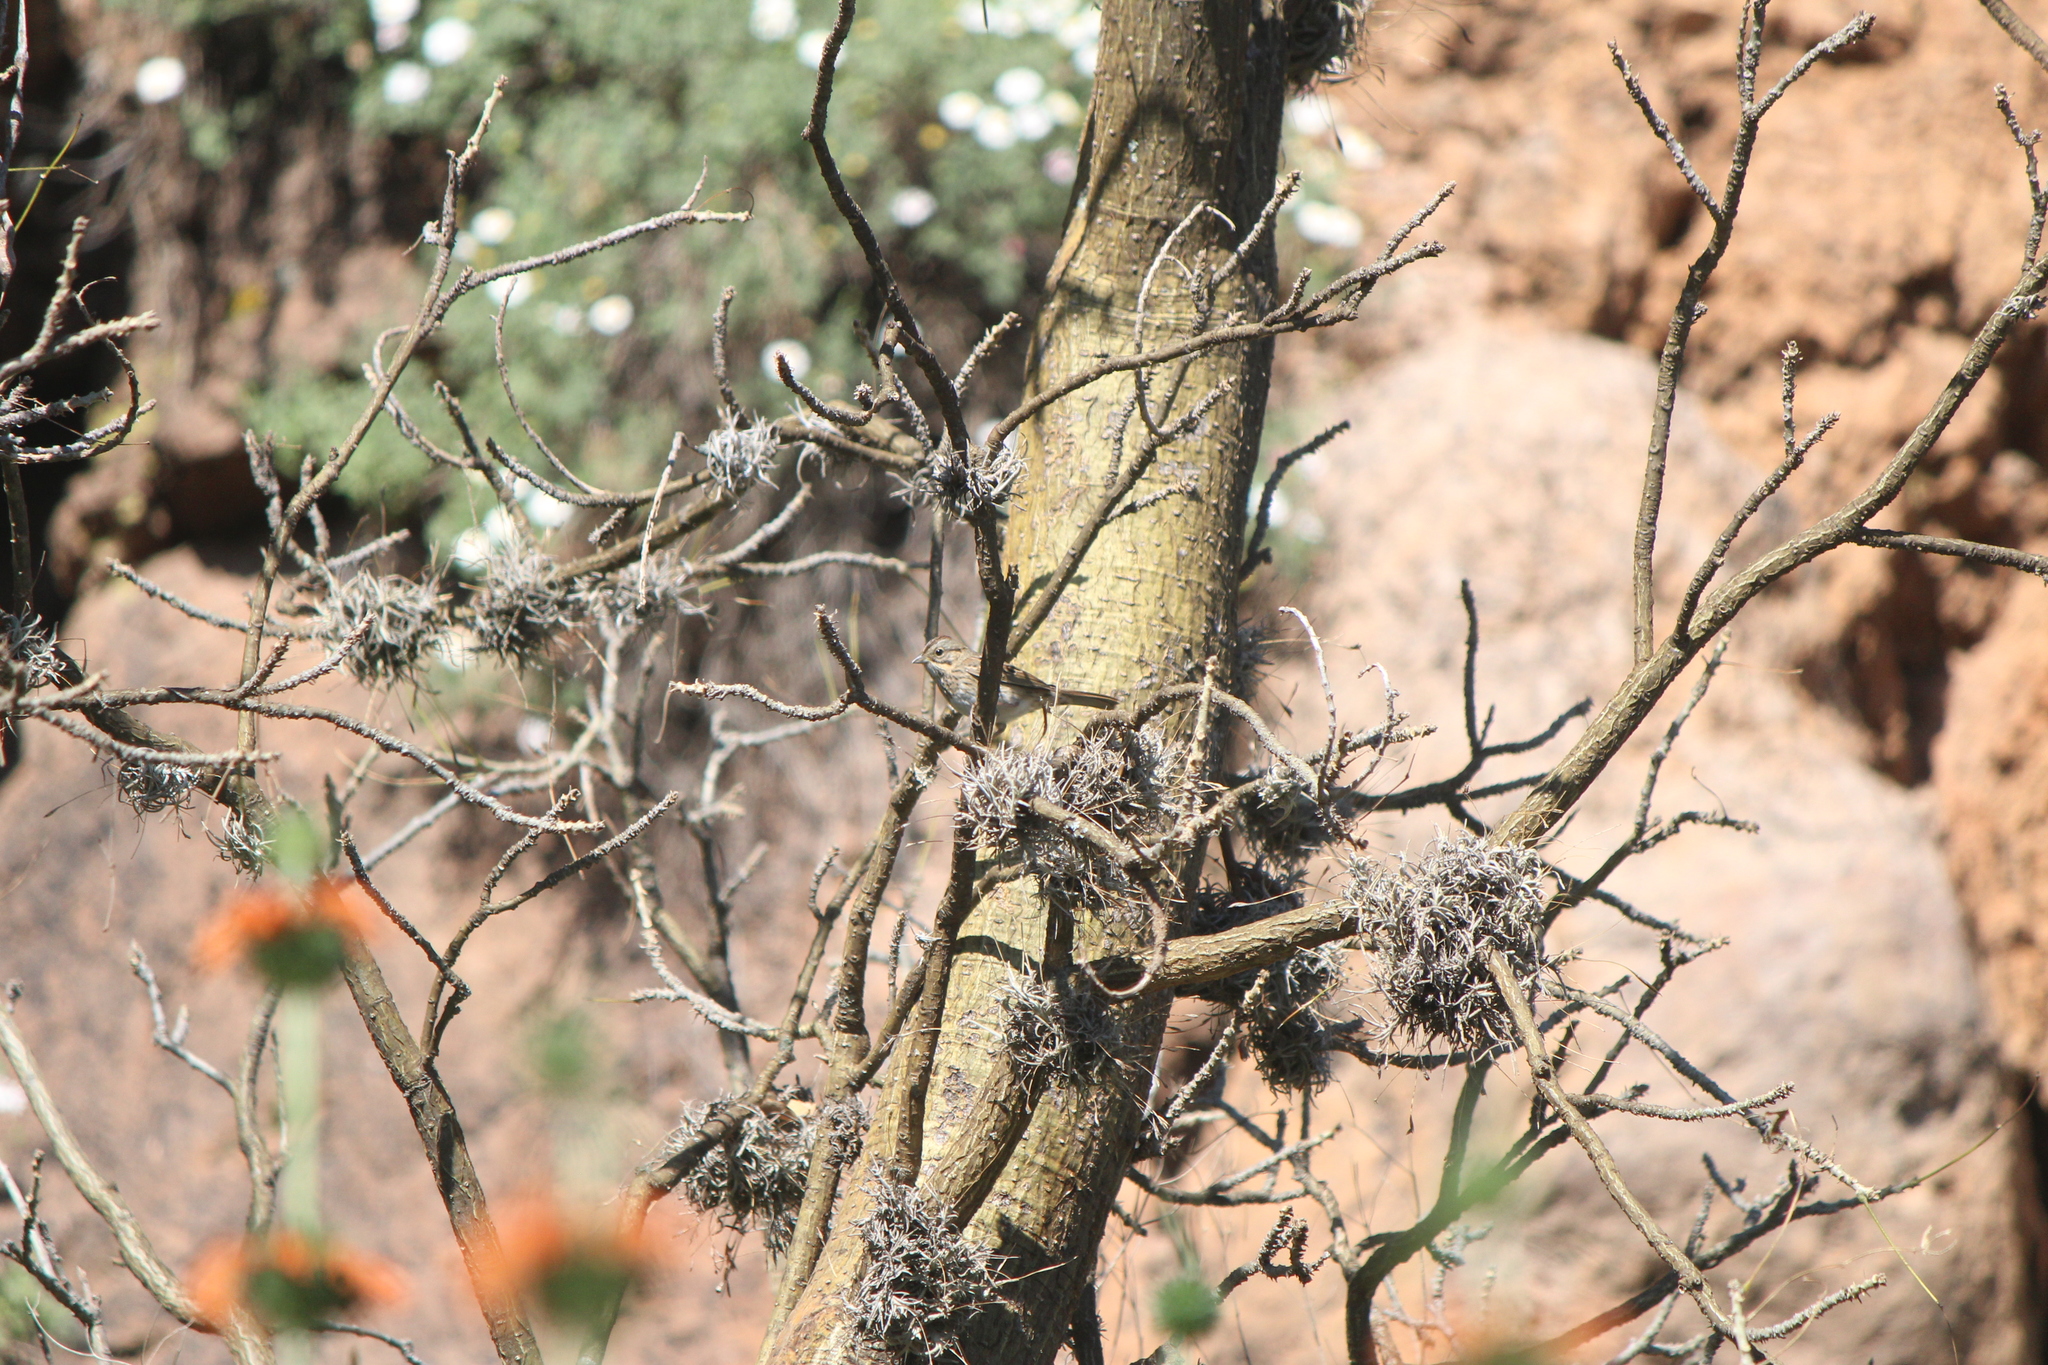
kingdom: Animalia
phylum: Chordata
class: Aves
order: Passeriformes
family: Passerellidae
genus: Melospiza
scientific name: Melospiza lincolnii
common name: Lincoln's sparrow
